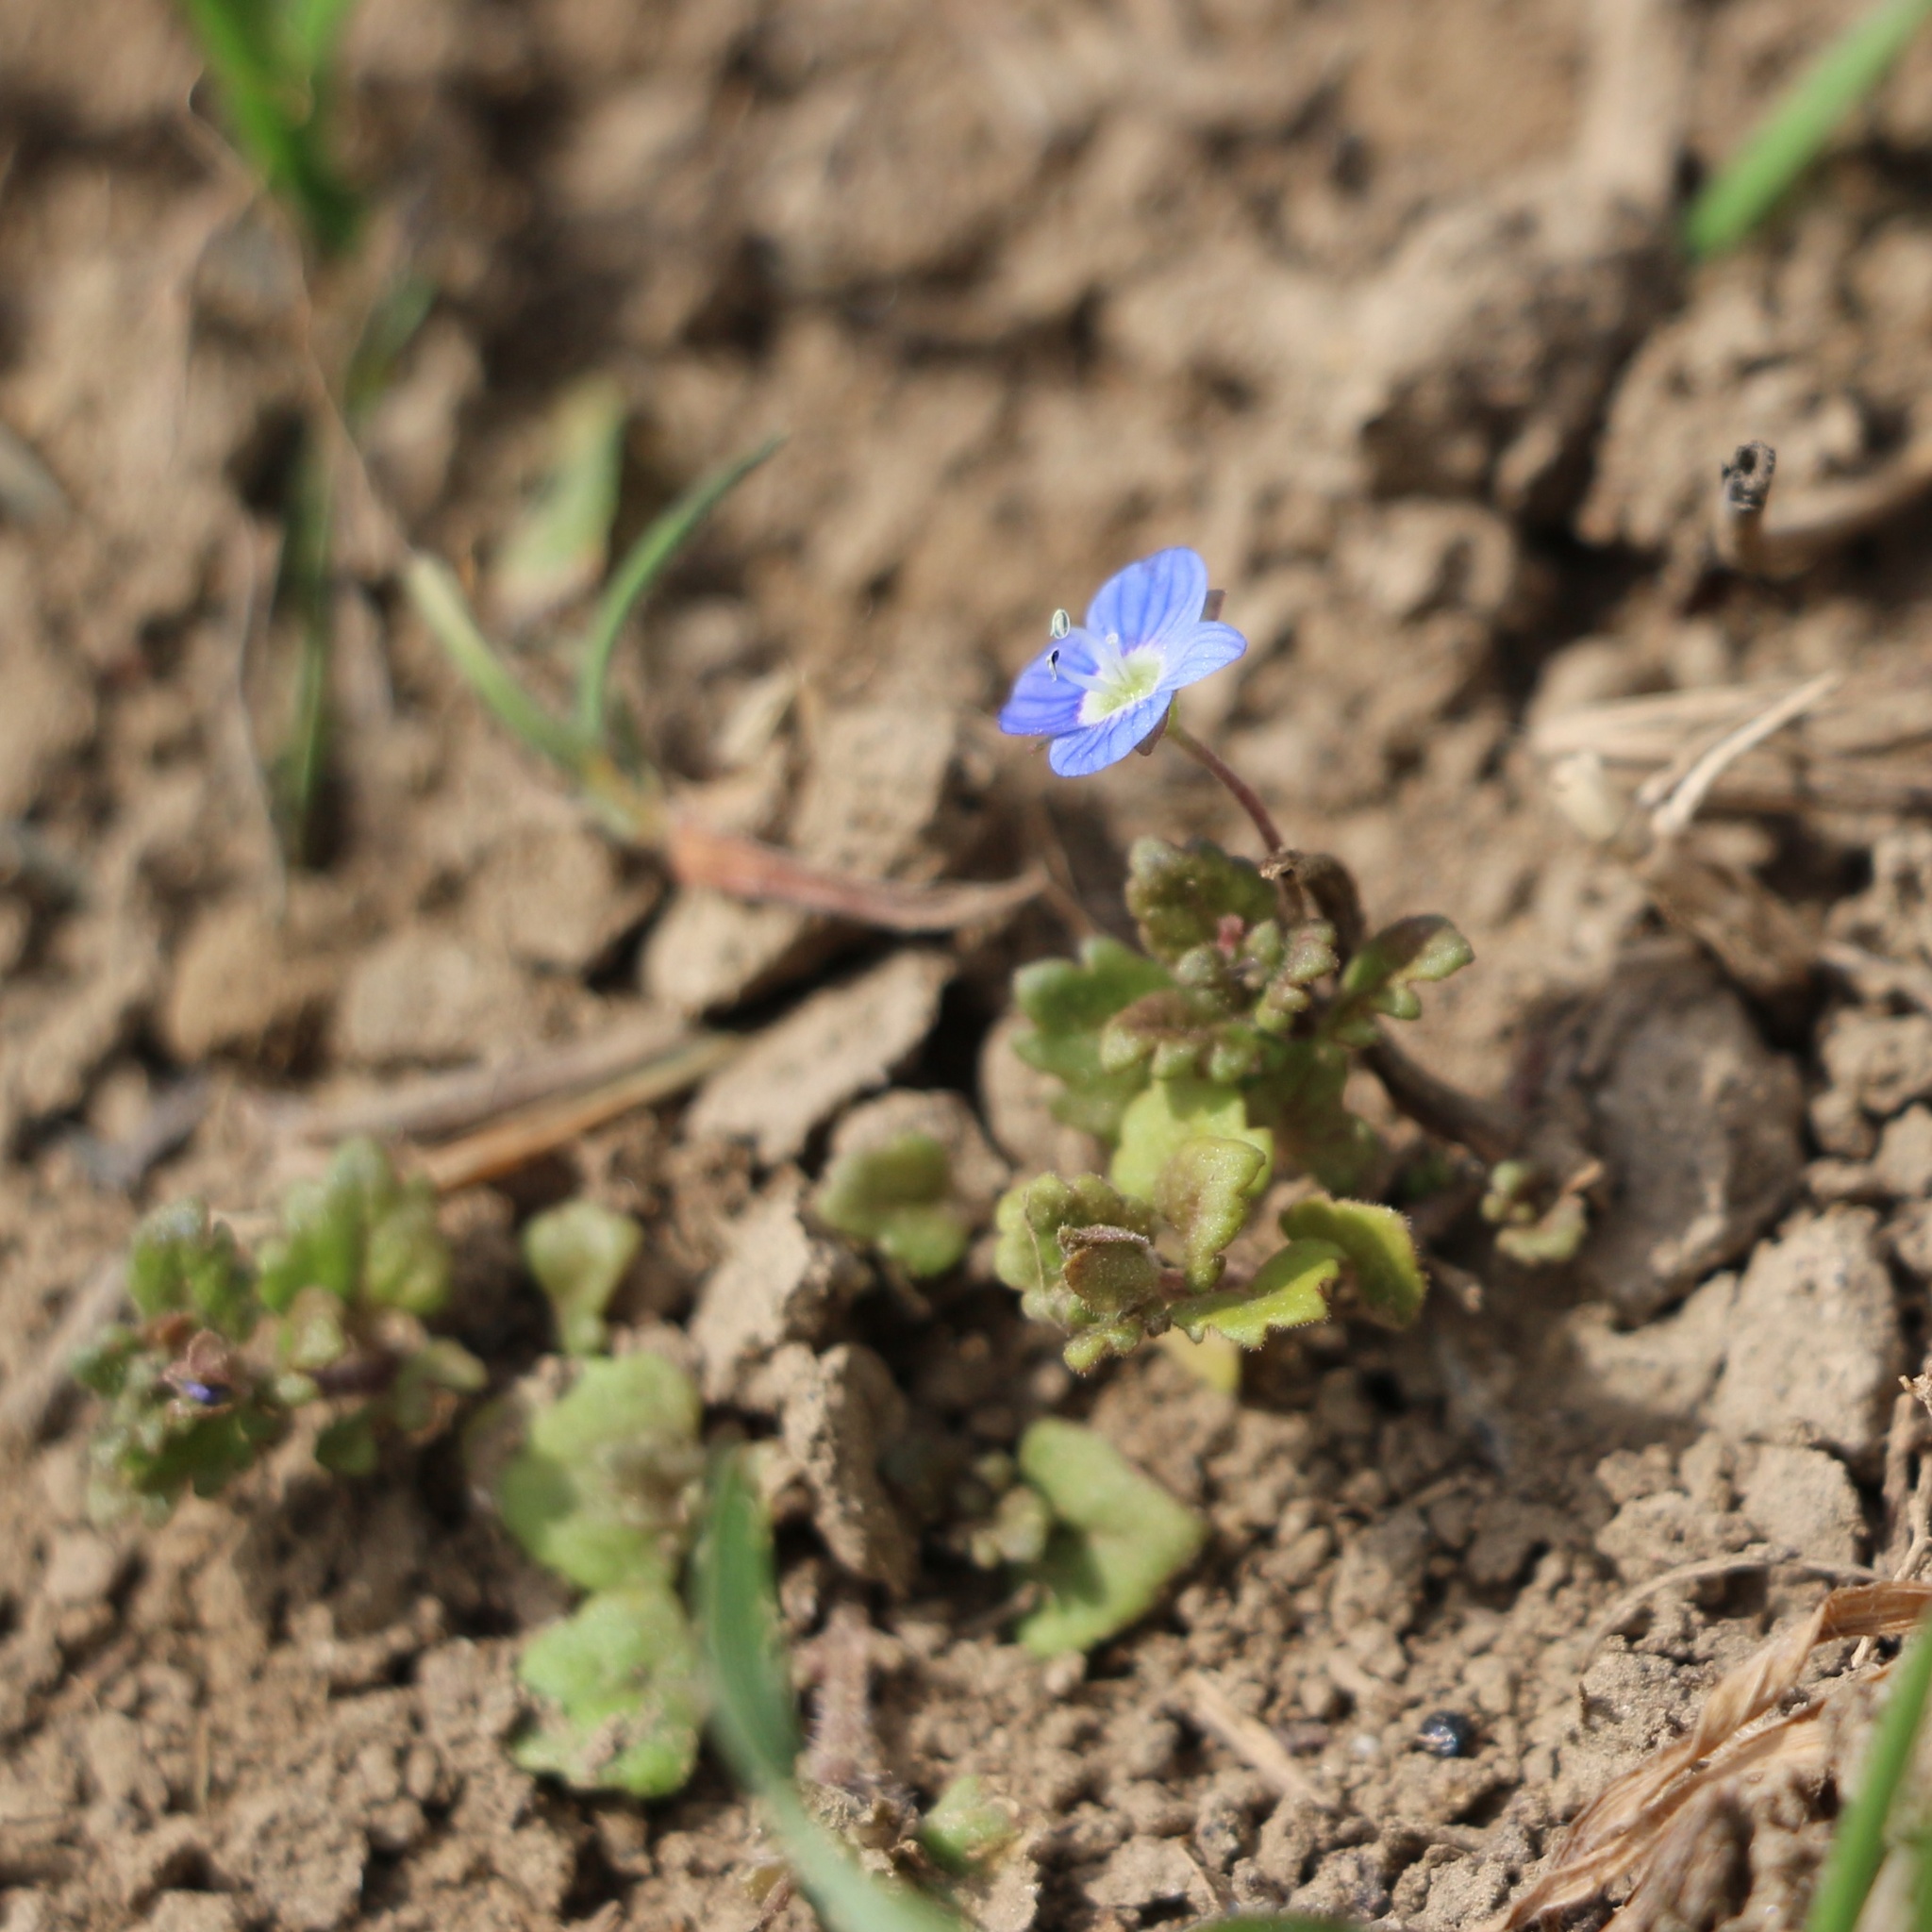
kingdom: Plantae
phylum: Tracheophyta
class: Magnoliopsida
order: Lamiales
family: Plantaginaceae
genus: Veronica
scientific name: Veronica polita
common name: Grey field-speedwell
